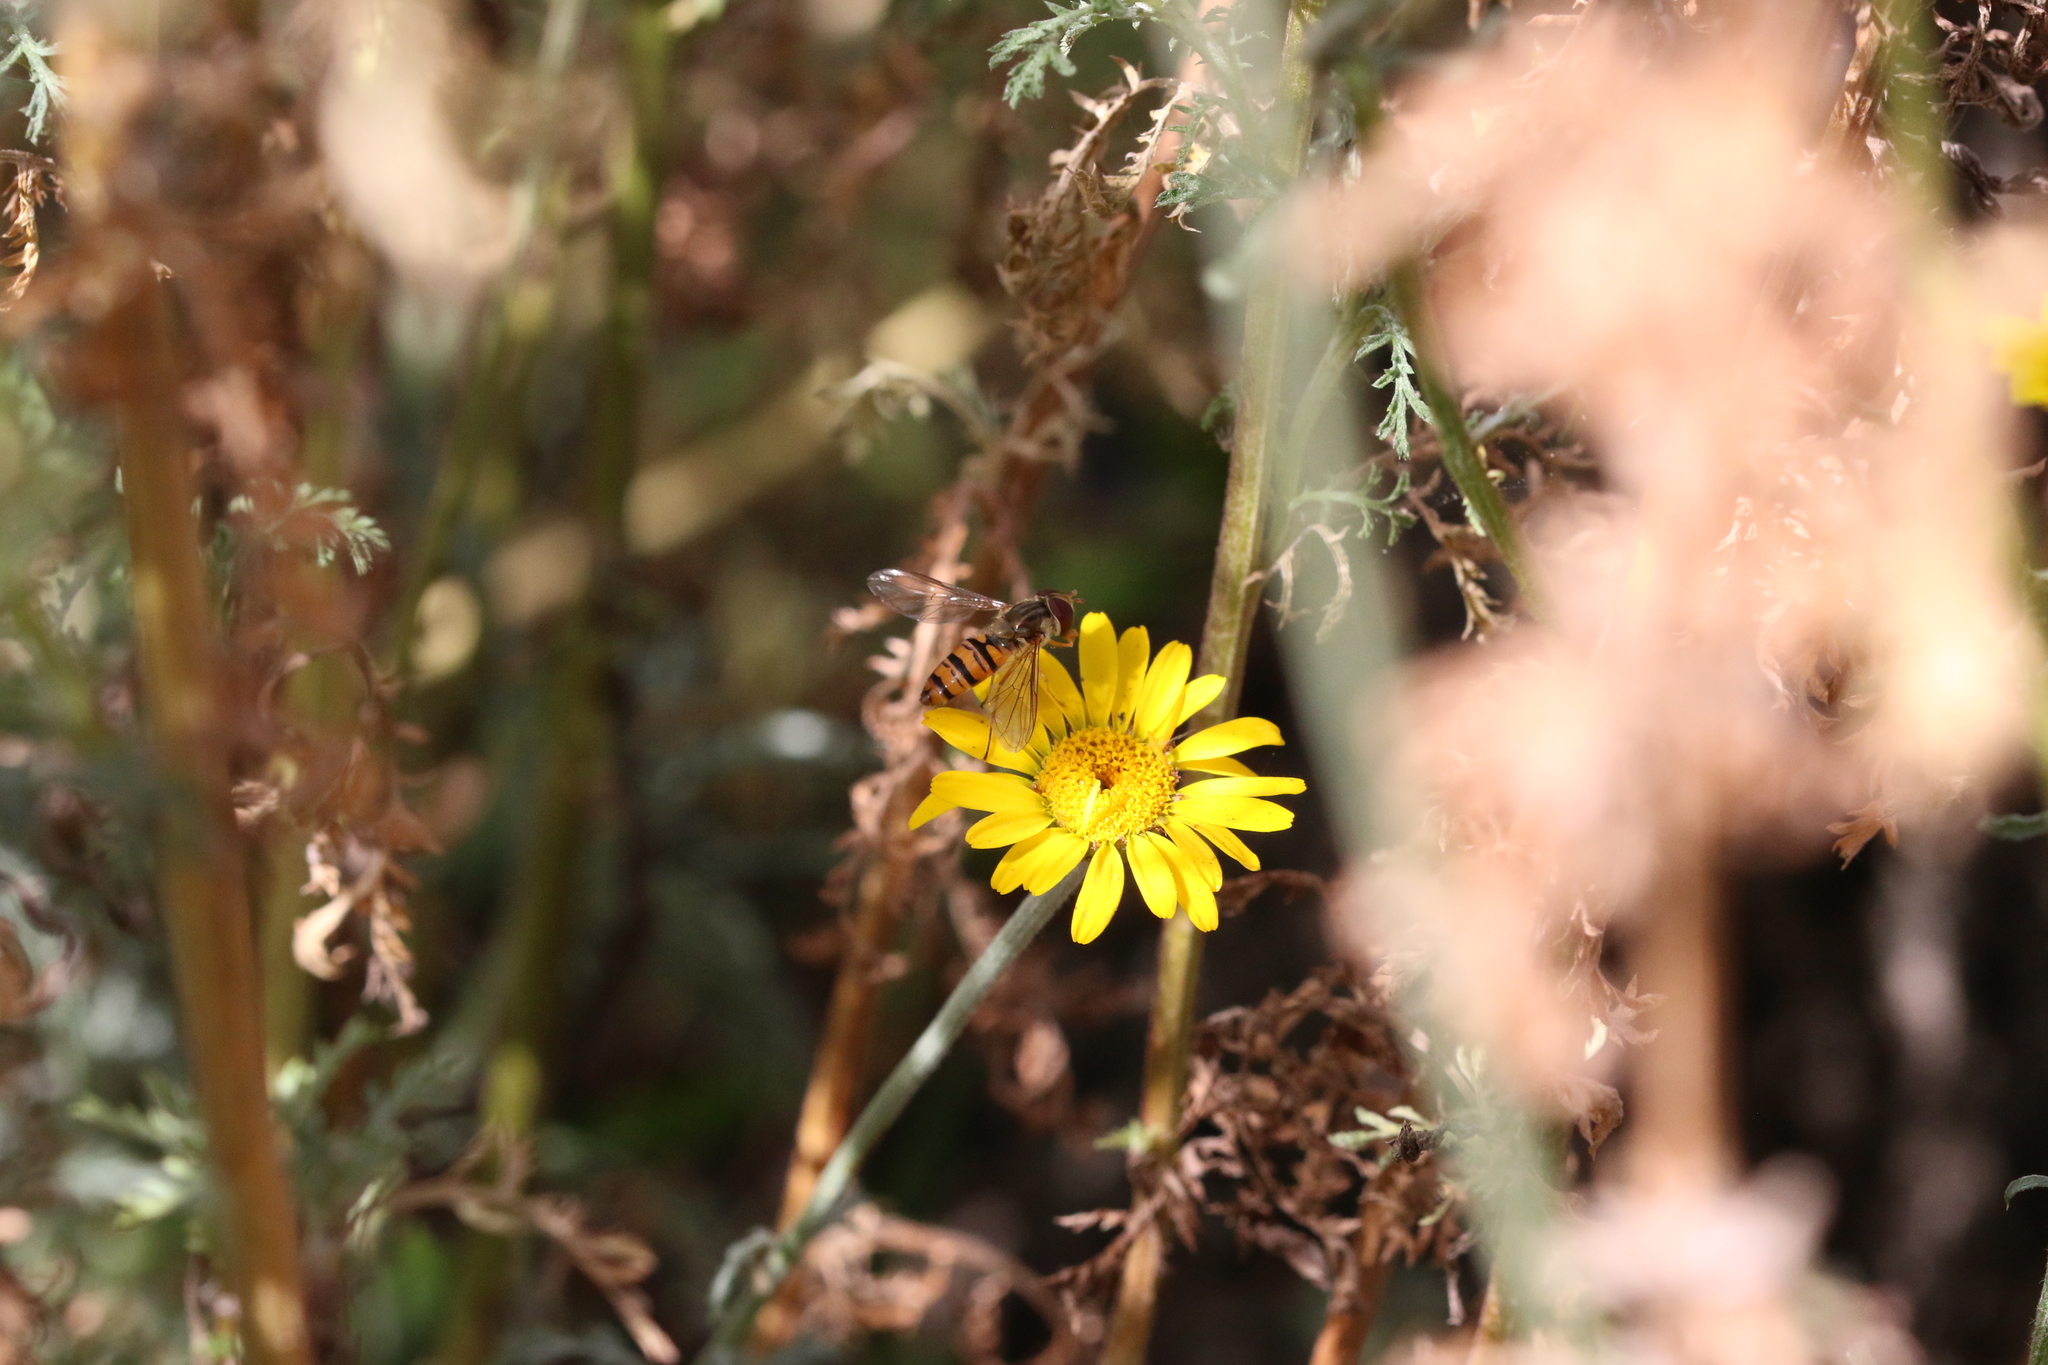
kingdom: Animalia
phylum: Arthropoda
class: Insecta
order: Diptera
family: Syrphidae
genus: Episyrphus
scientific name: Episyrphus balteatus
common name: Marmalade hoverfly
